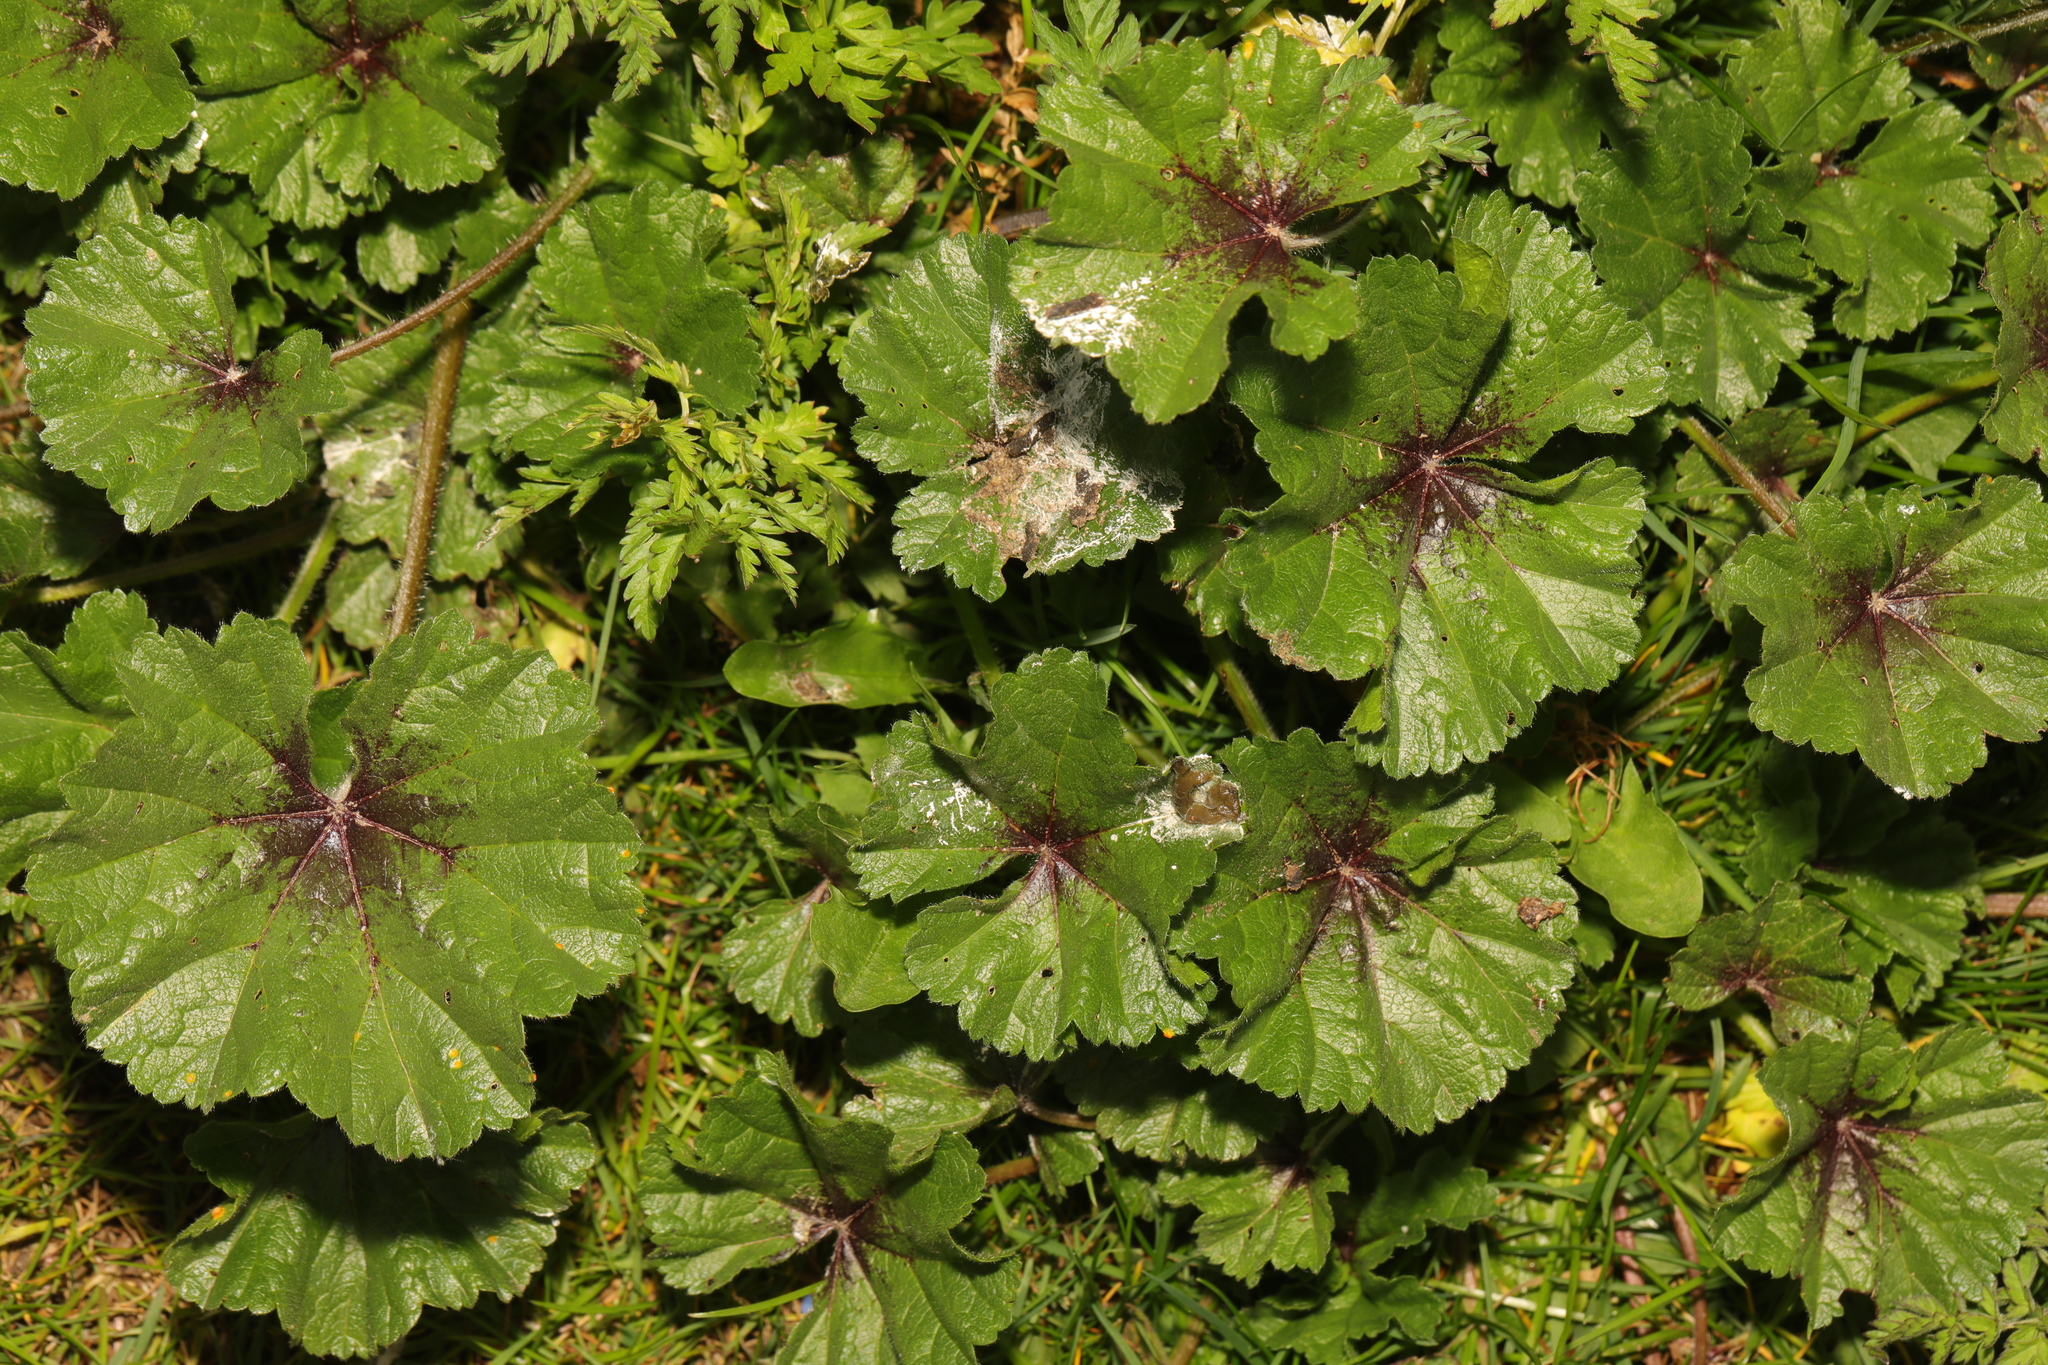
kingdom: Plantae
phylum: Tracheophyta
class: Magnoliopsida
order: Malvales
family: Malvaceae
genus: Malva
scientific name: Malva sylvestris
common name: Common mallow
